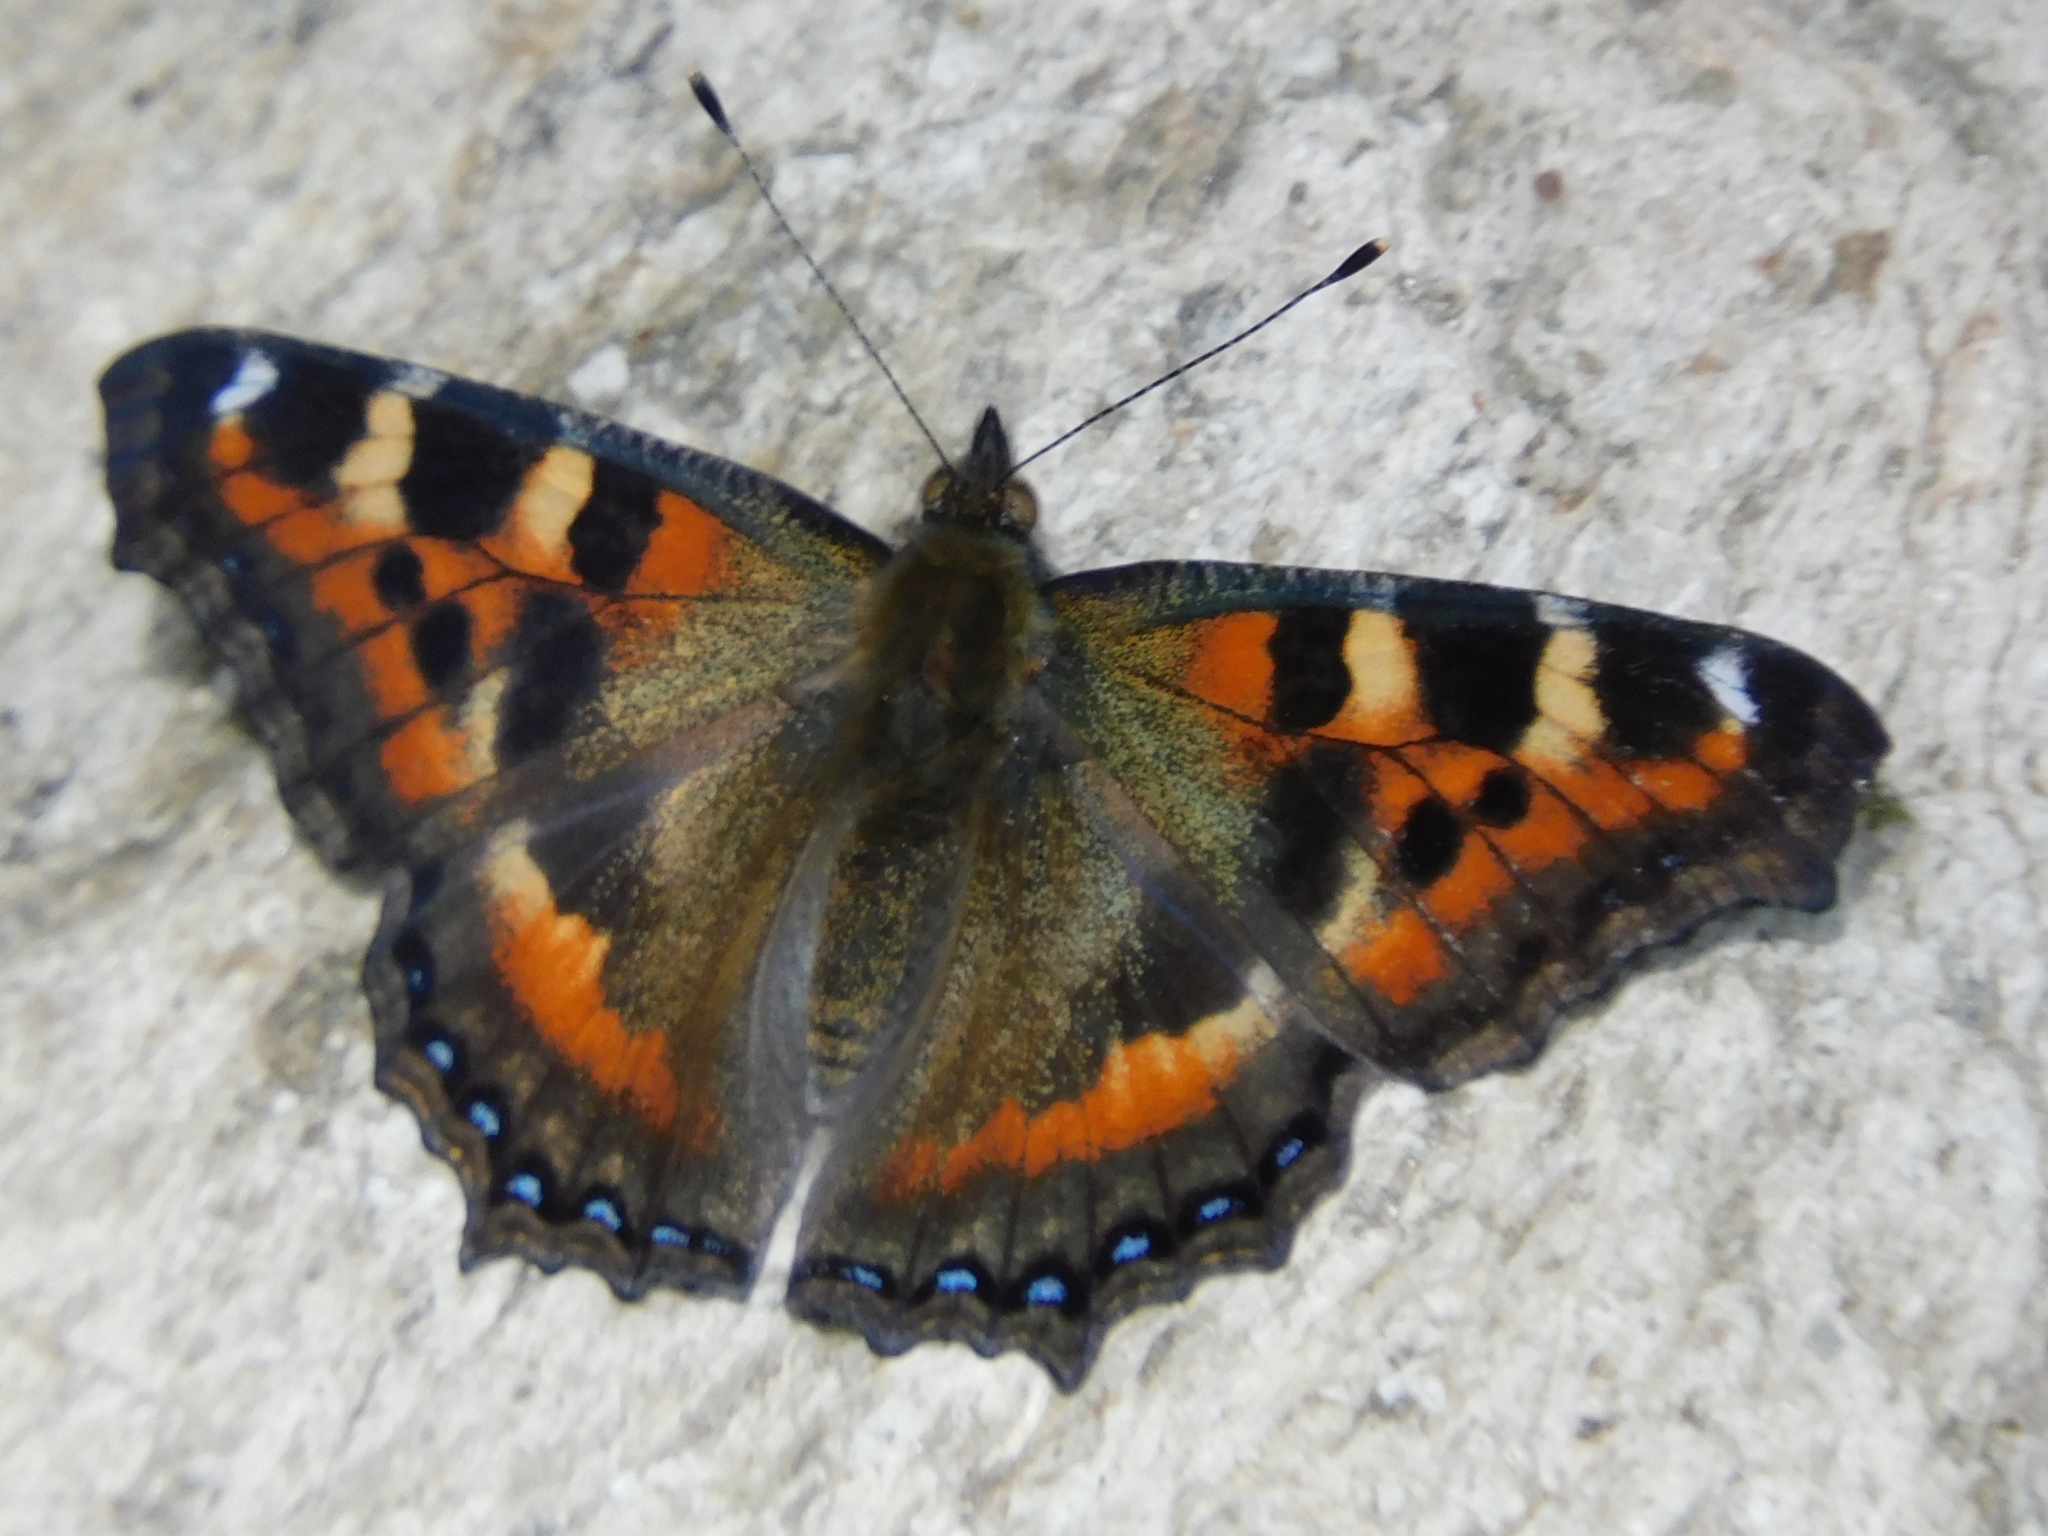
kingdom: Animalia
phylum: Arthropoda
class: Insecta
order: Lepidoptera
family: Nymphalidae
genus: Aglais
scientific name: Aglais caschmirensis
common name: Indian tortoiseshell
